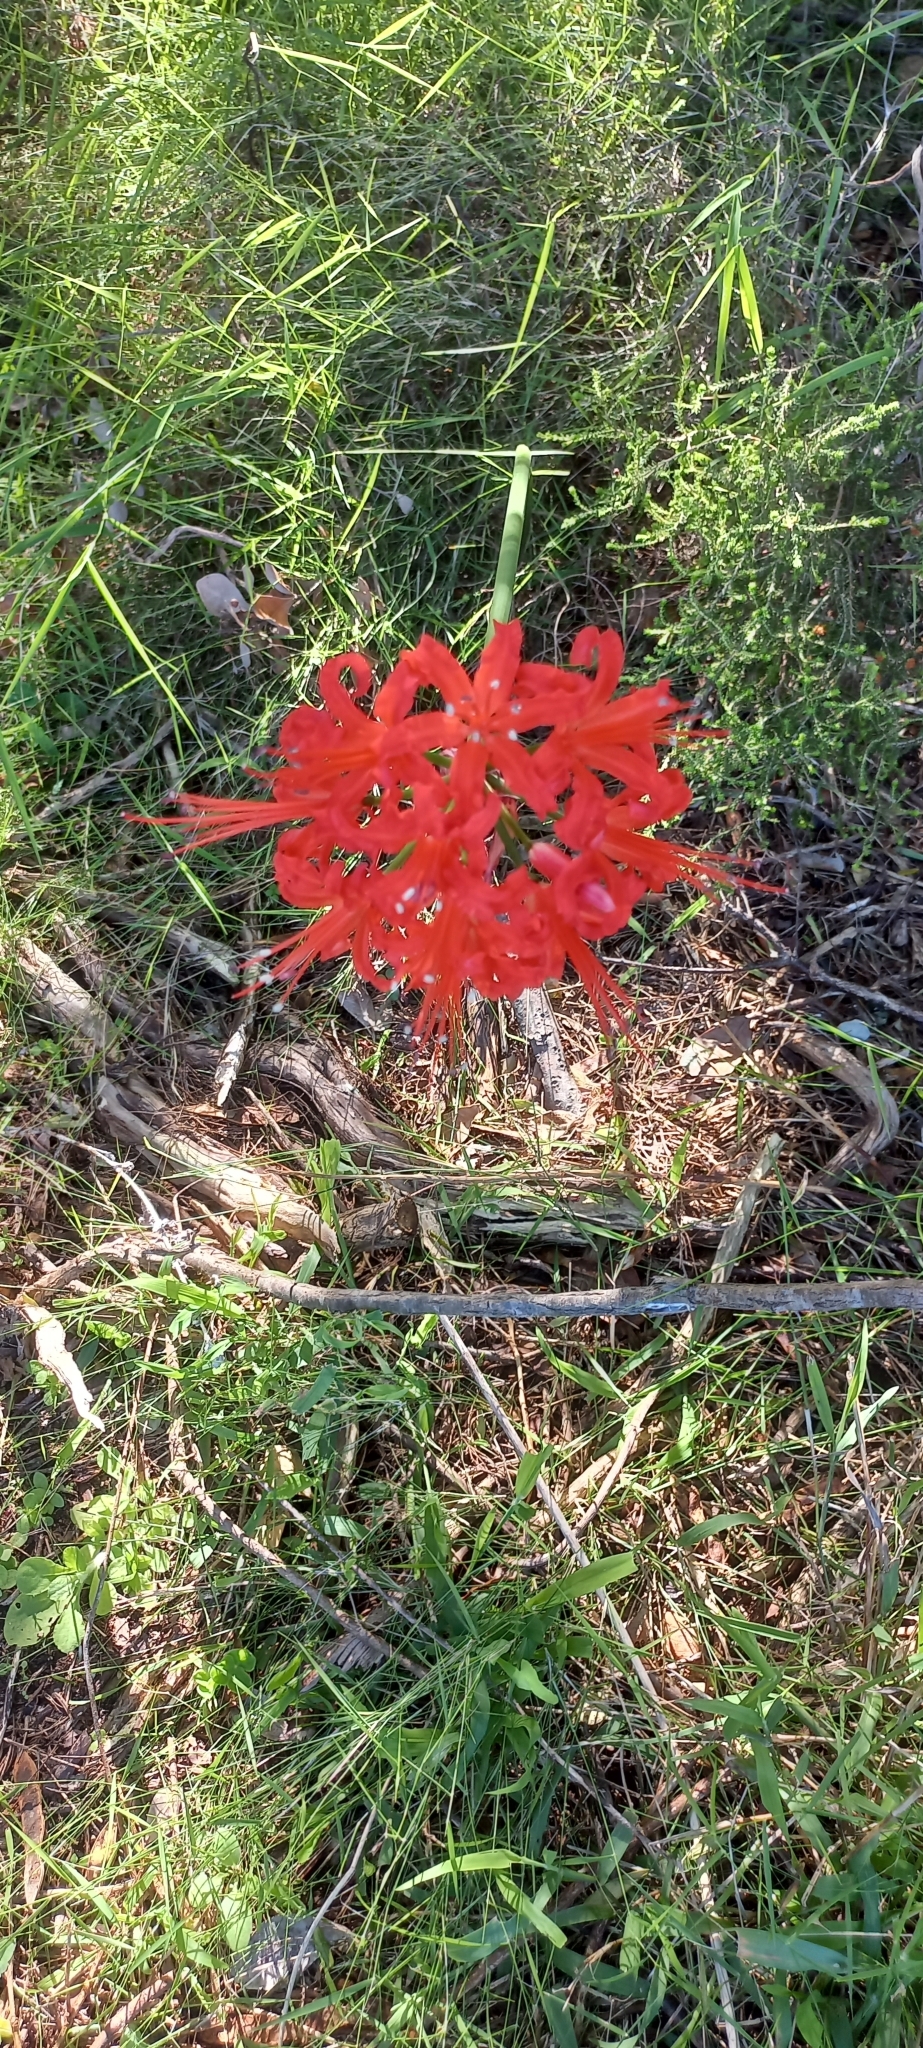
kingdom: Plantae
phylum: Tracheophyta
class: Liliopsida
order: Asparagales
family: Amaryllidaceae
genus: Nerine
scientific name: Nerine sarniensis
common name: Guernsey-lily
